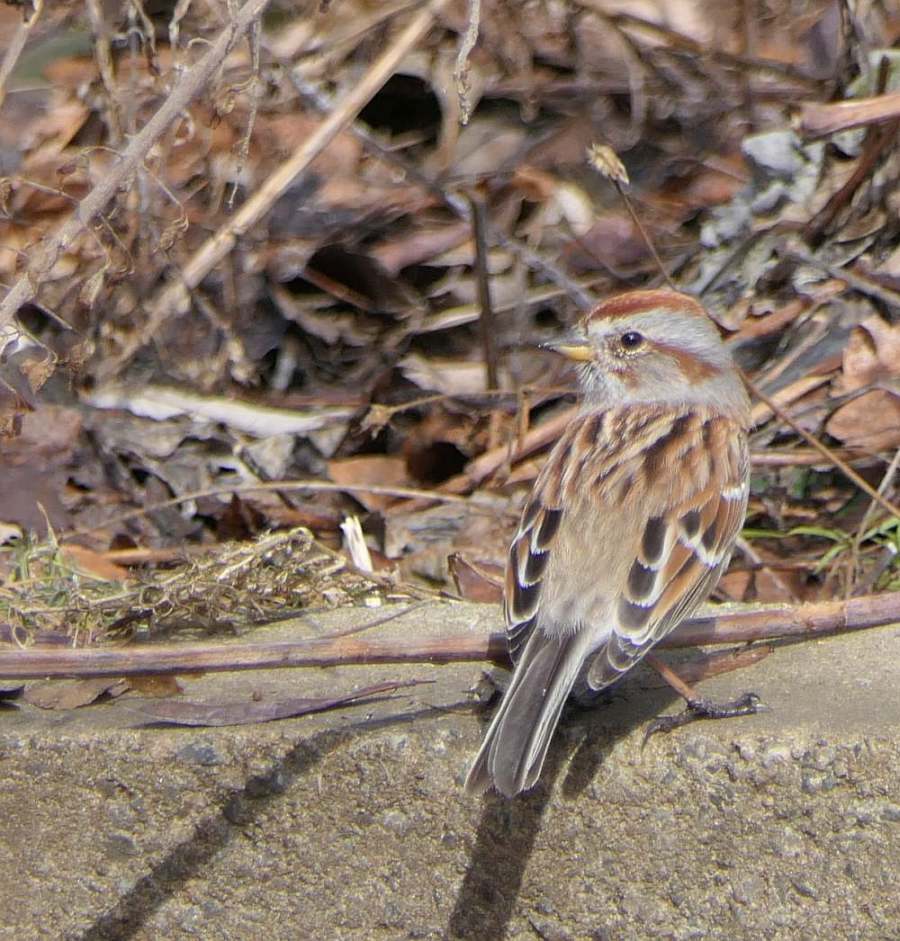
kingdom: Animalia
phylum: Chordata
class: Aves
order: Passeriformes
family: Passerellidae
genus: Spizelloides
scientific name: Spizelloides arborea
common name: American tree sparrow
